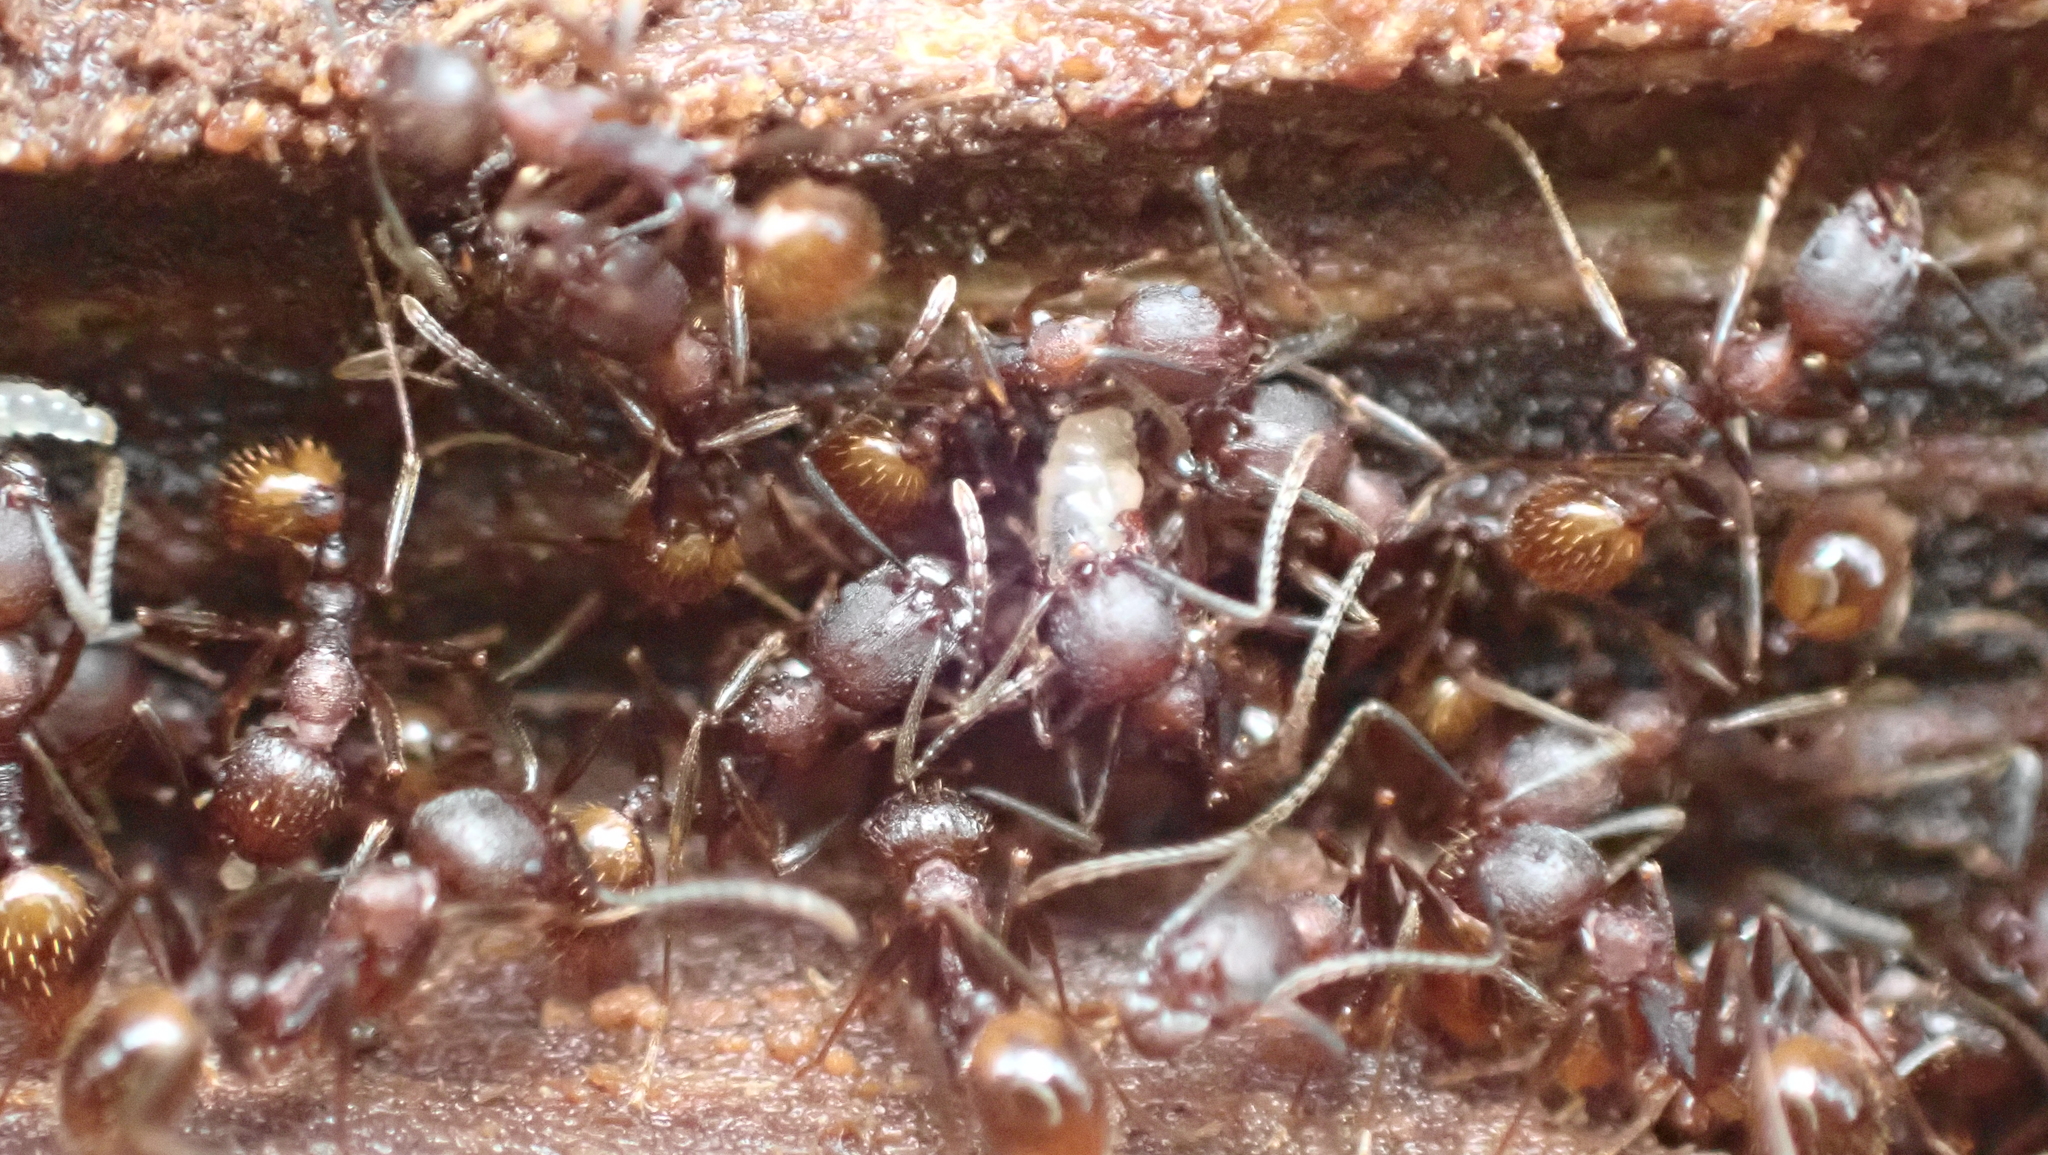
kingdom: Animalia
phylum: Arthropoda
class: Insecta
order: Hymenoptera
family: Formicidae
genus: Aphaenogaster
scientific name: Aphaenogaster fulva
